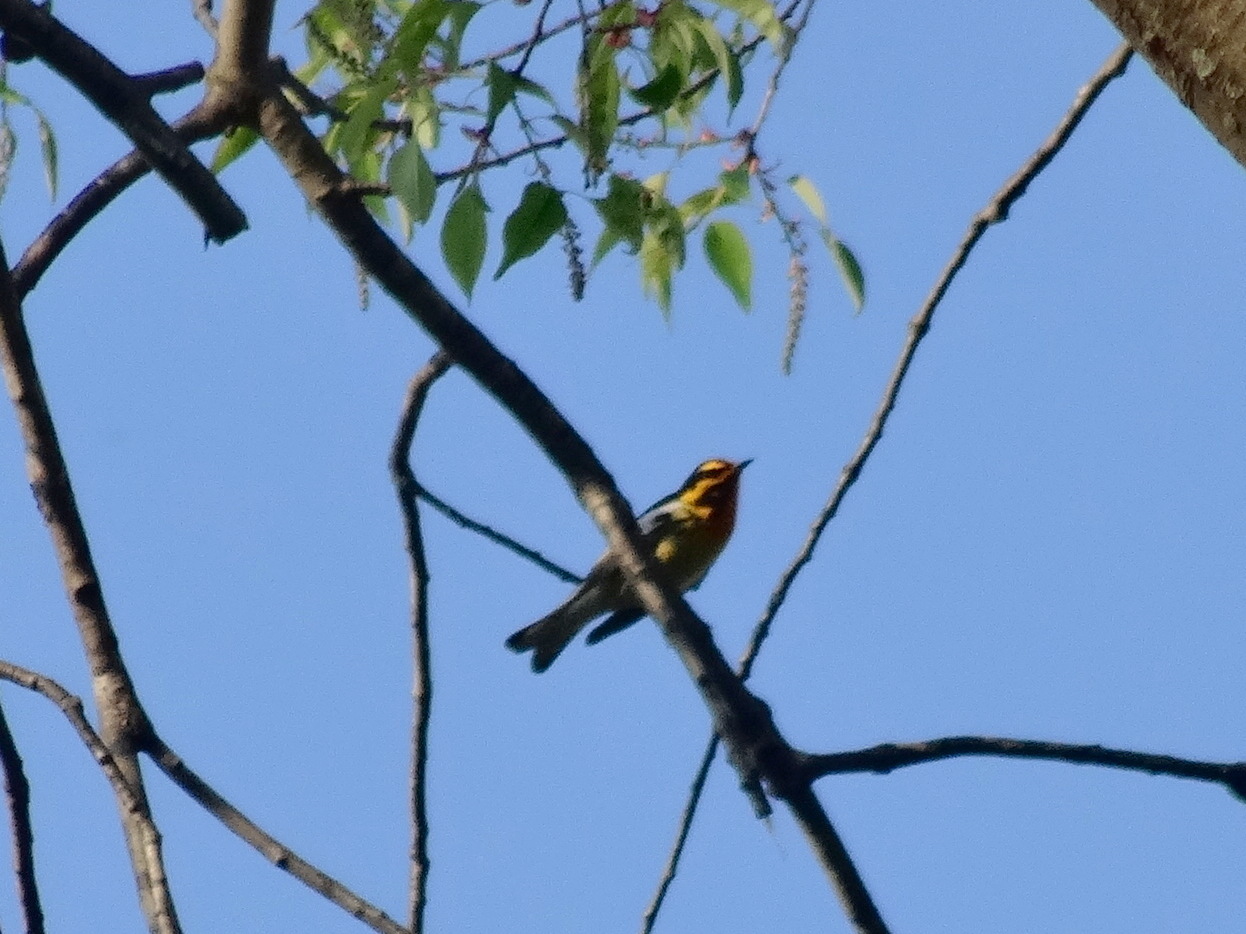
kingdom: Animalia
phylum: Chordata
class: Aves
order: Passeriformes
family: Parulidae
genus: Setophaga
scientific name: Setophaga fusca
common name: Blackburnian warbler
